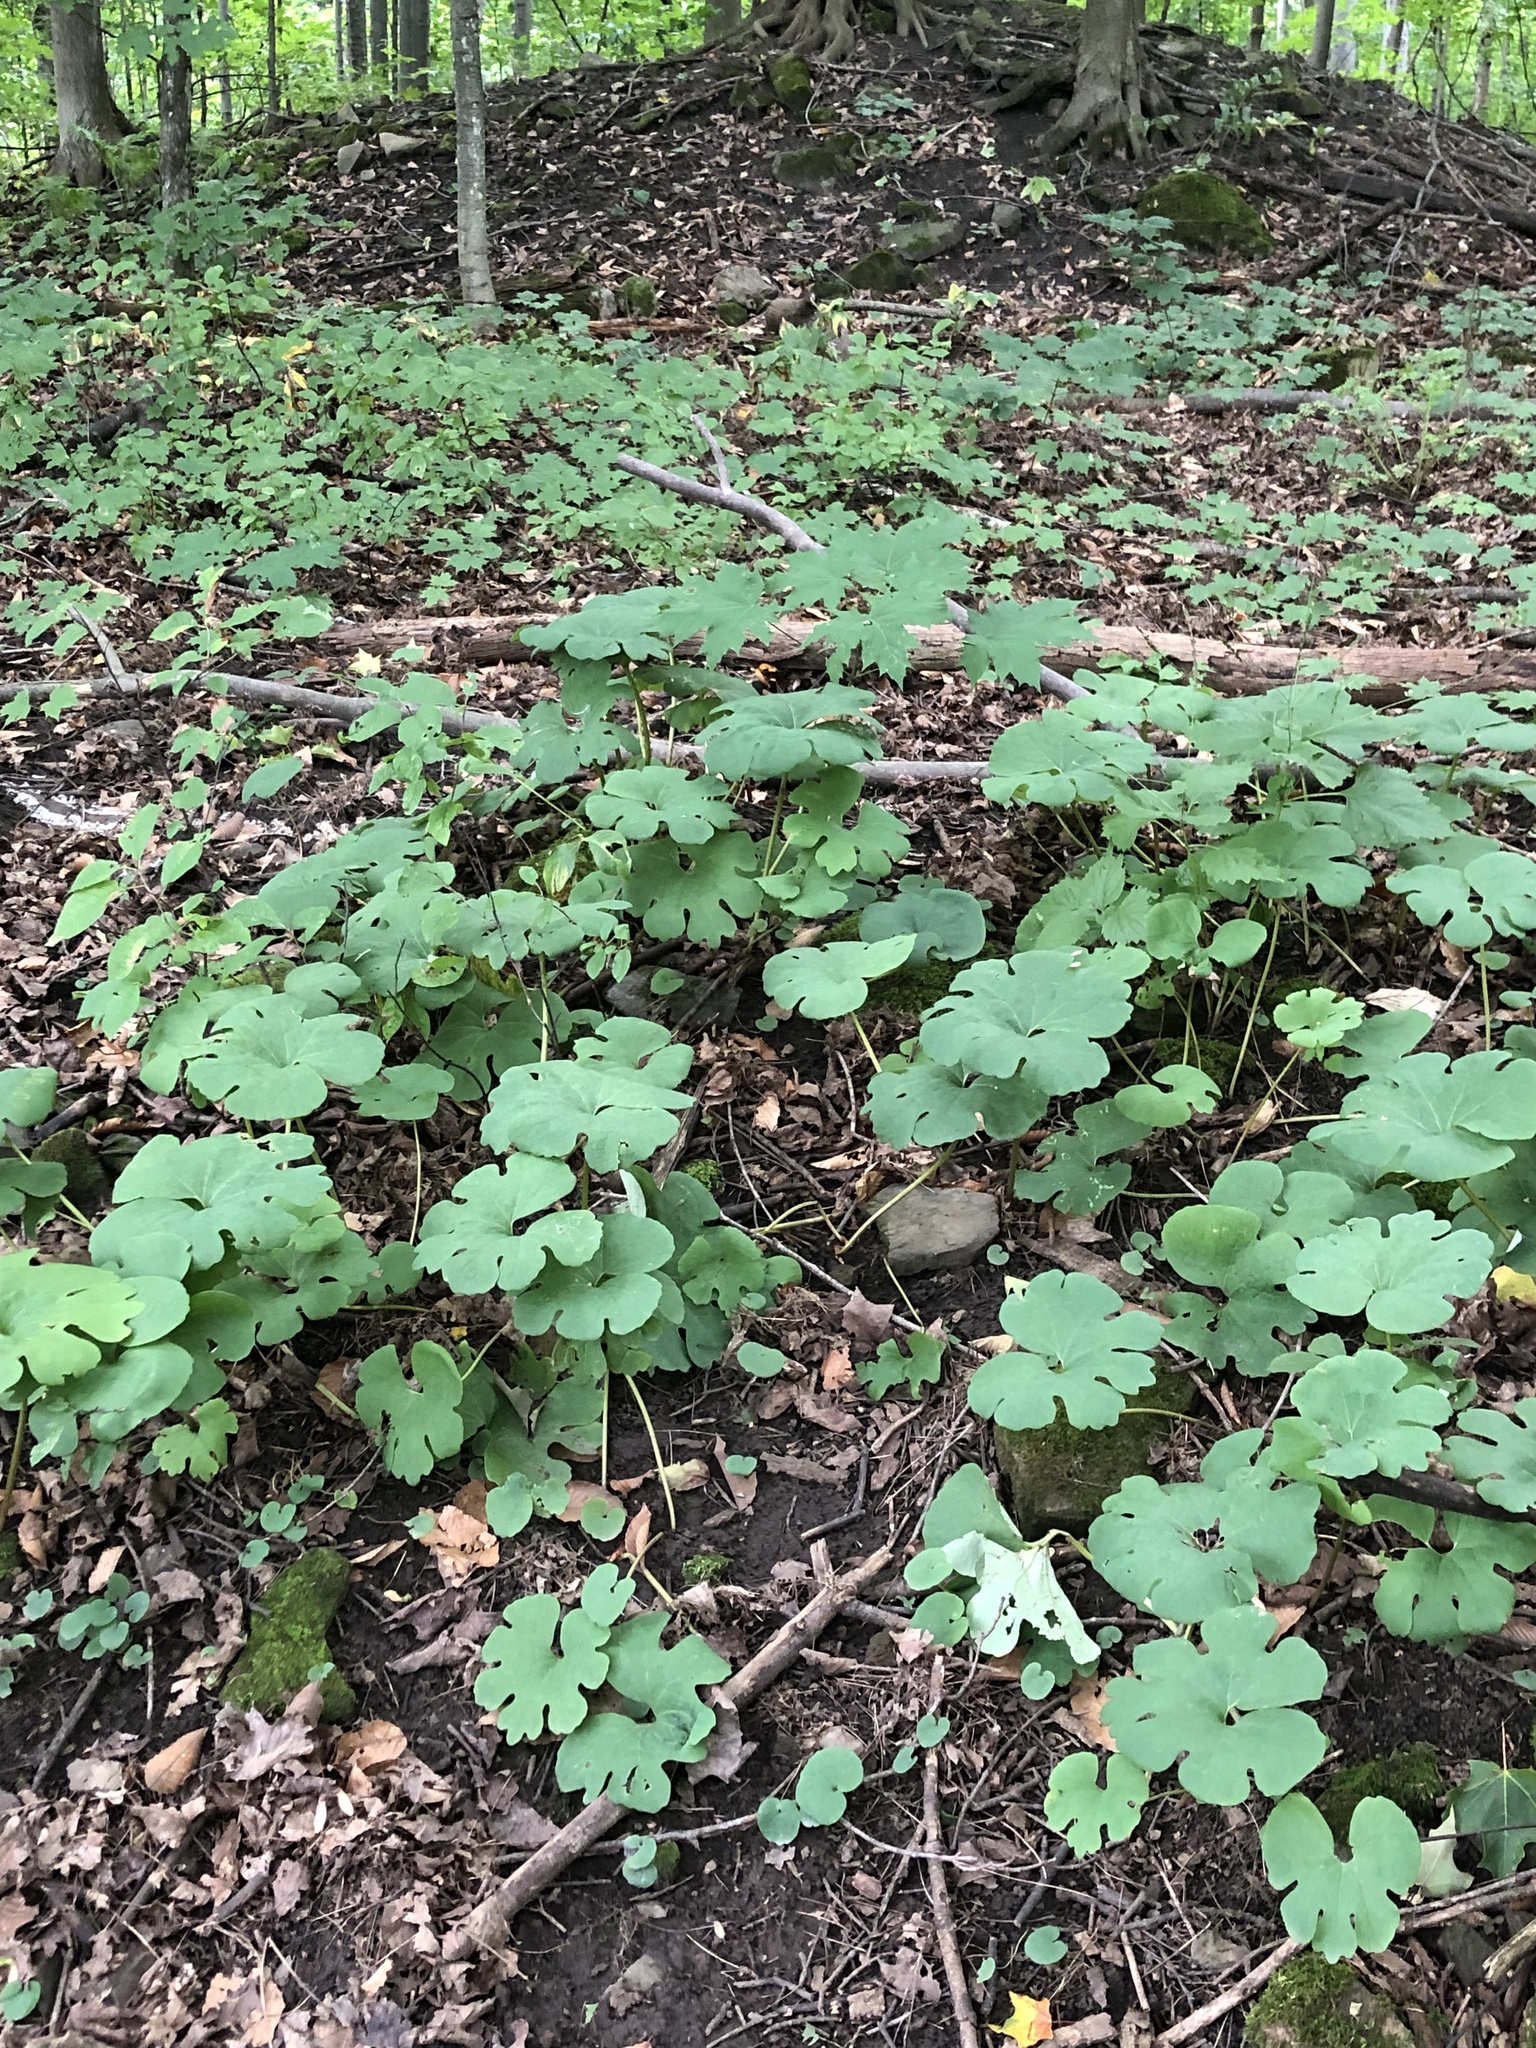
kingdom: Plantae
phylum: Tracheophyta
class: Magnoliopsida
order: Ranunculales
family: Papaveraceae
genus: Sanguinaria
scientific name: Sanguinaria canadensis
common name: Bloodroot
